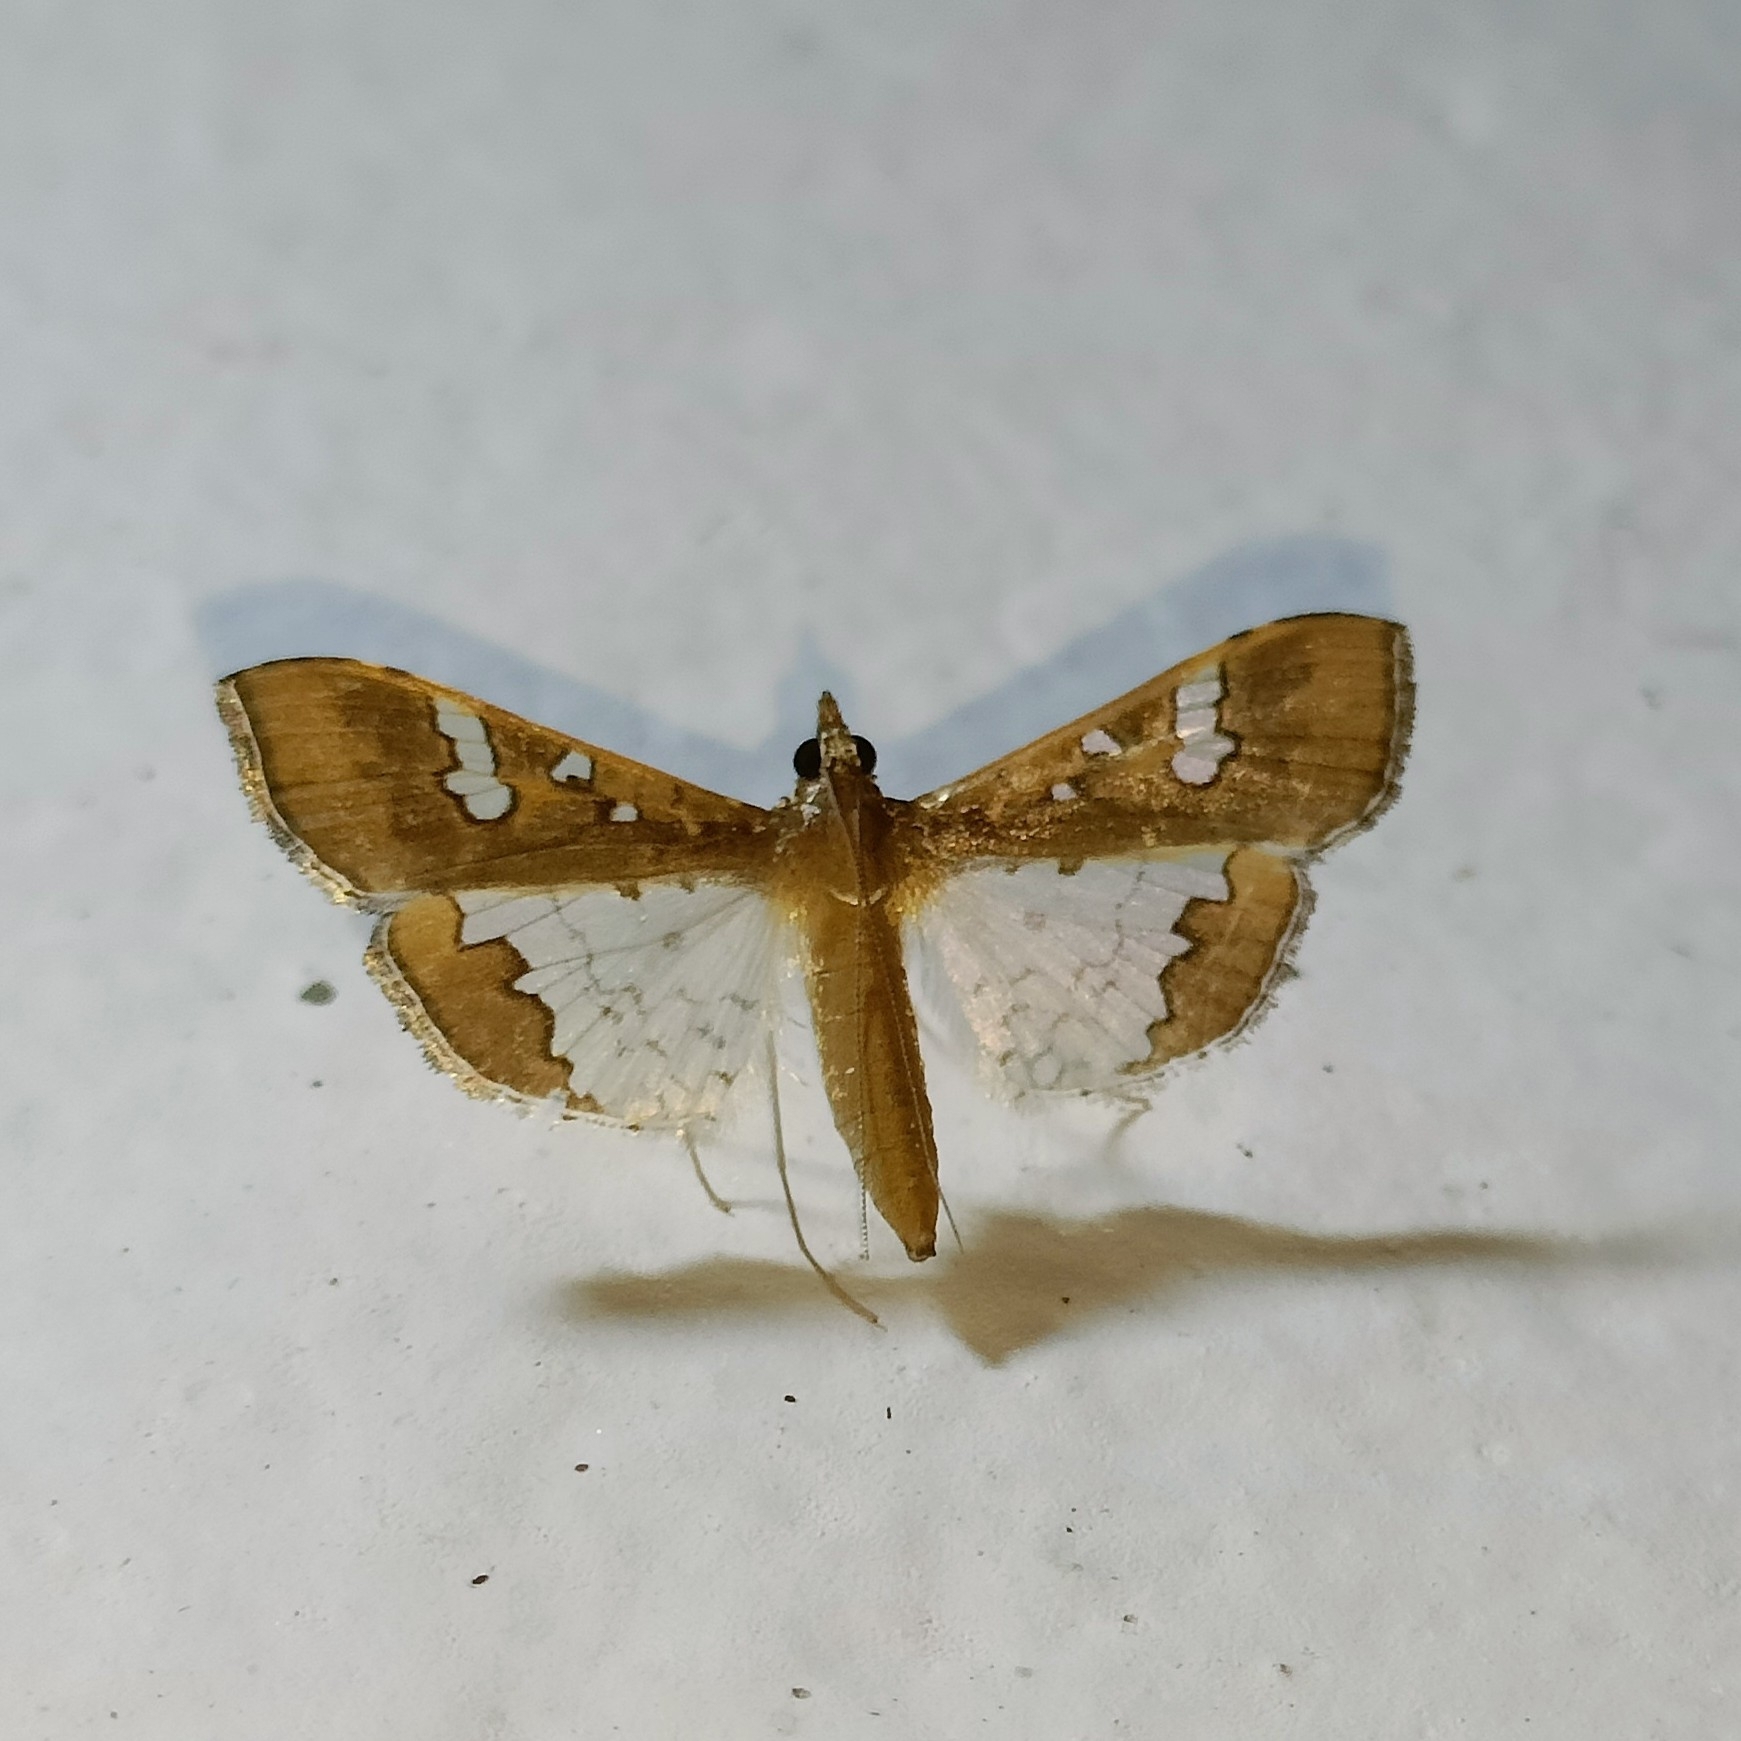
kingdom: Animalia
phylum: Arthropoda
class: Insecta
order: Lepidoptera
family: Crambidae
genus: Maruca
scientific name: Maruca vitrata
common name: Maruca pod borer
